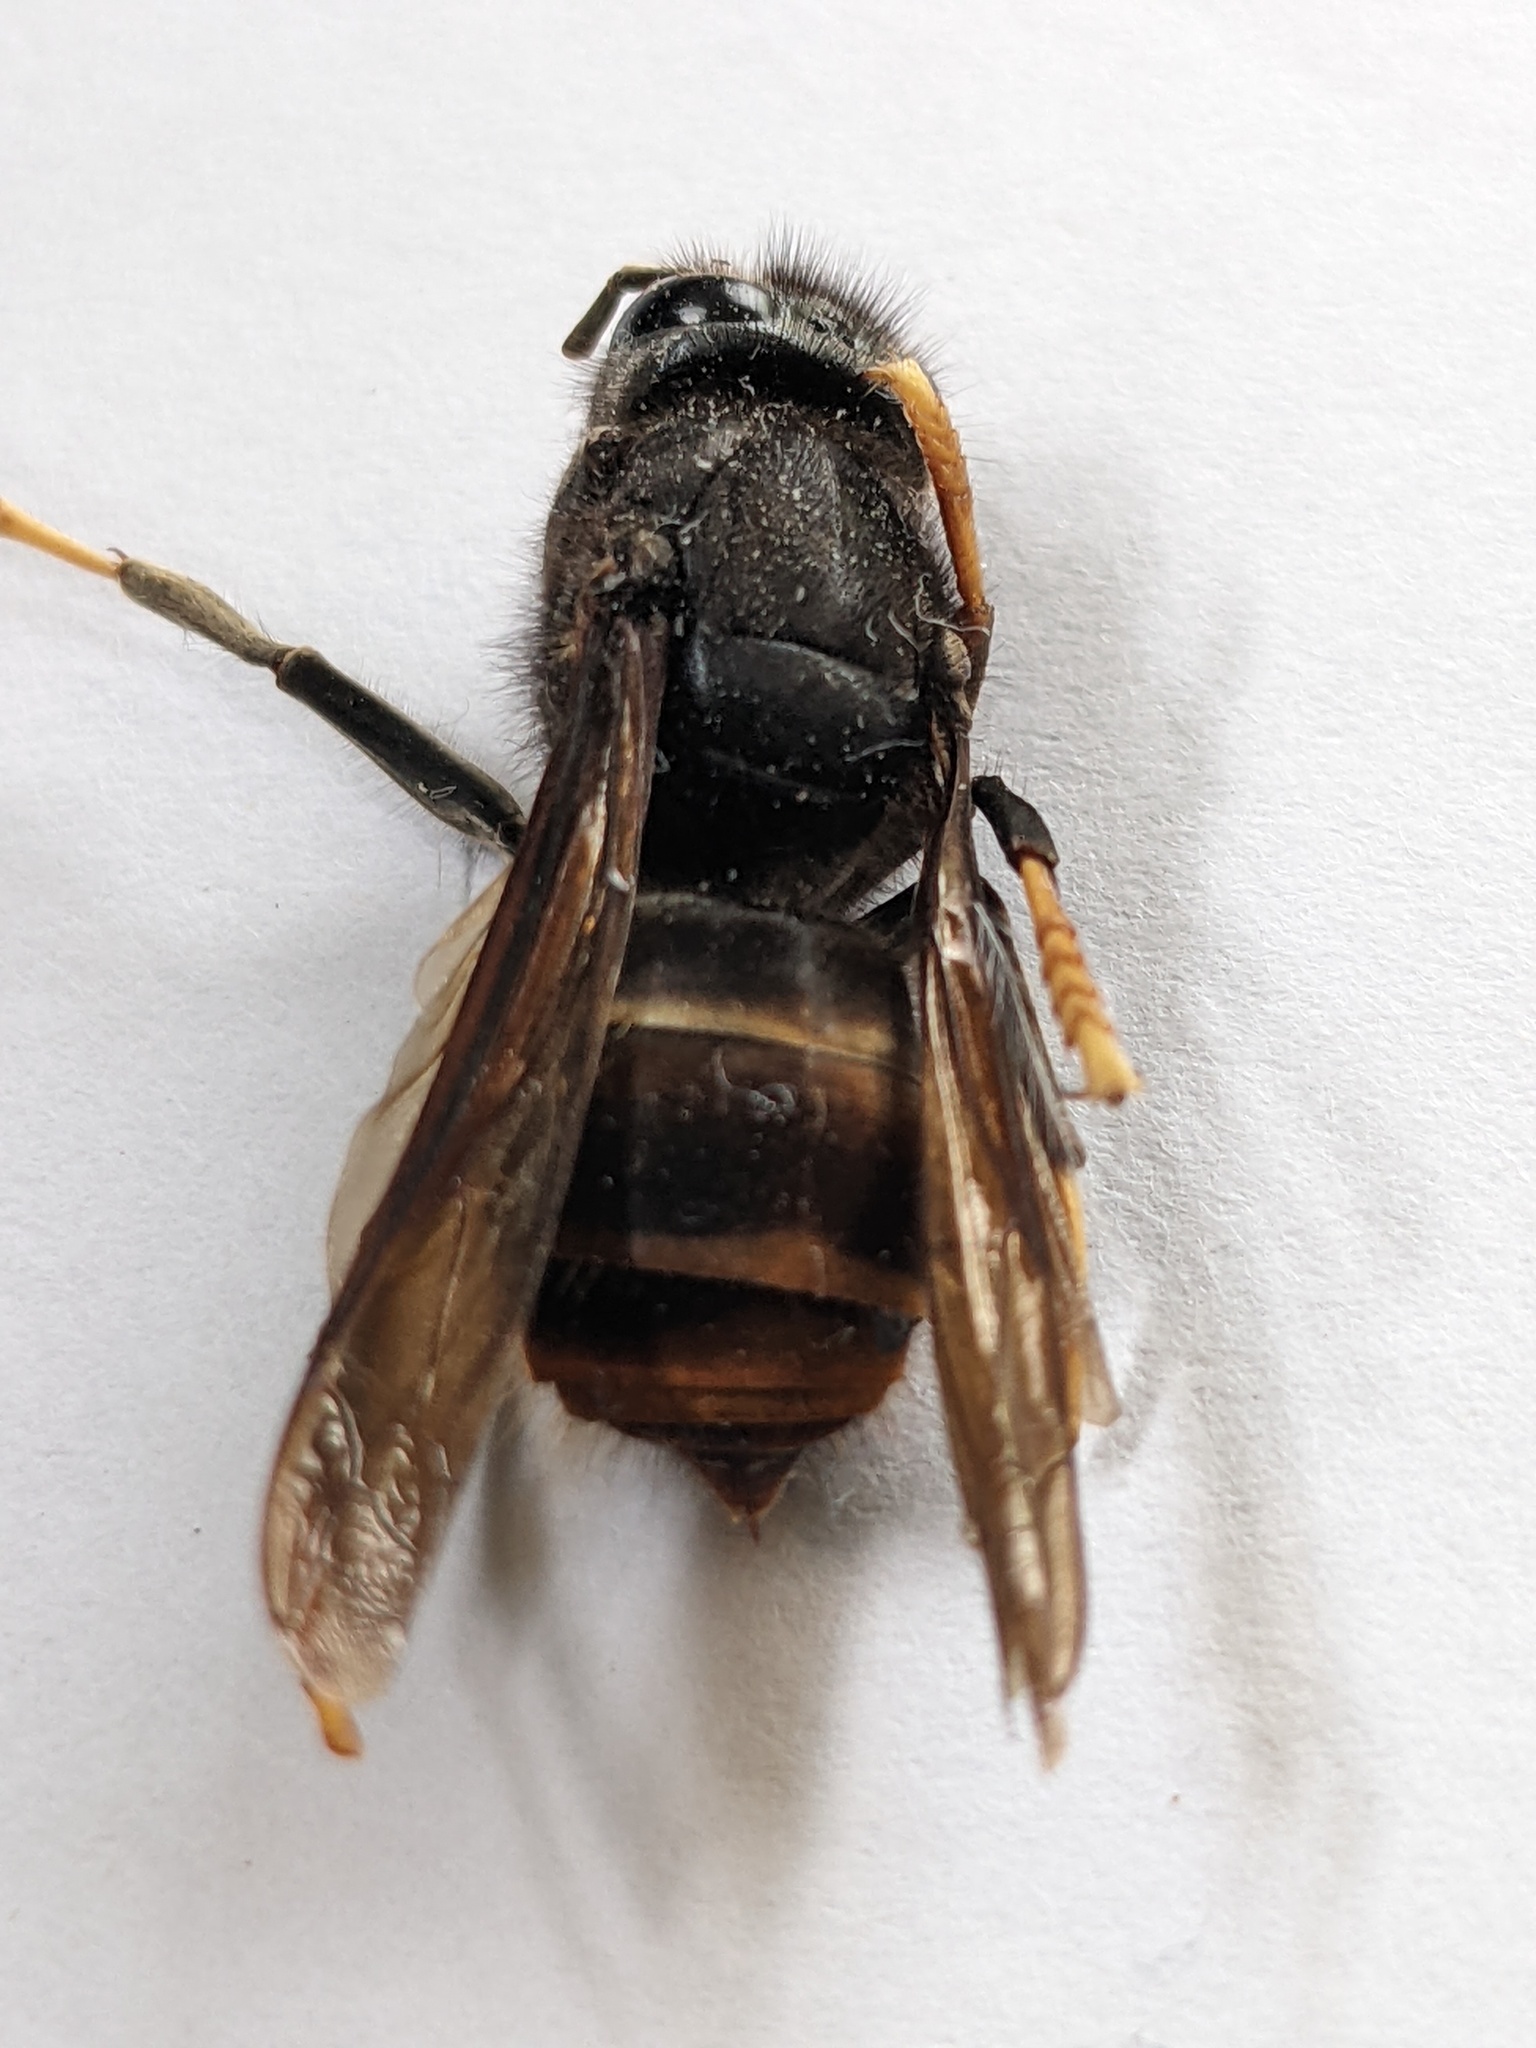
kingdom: Animalia
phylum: Arthropoda
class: Insecta
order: Hymenoptera
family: Vespidae
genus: Vespa
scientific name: Vespa velutina
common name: Asian hornet
